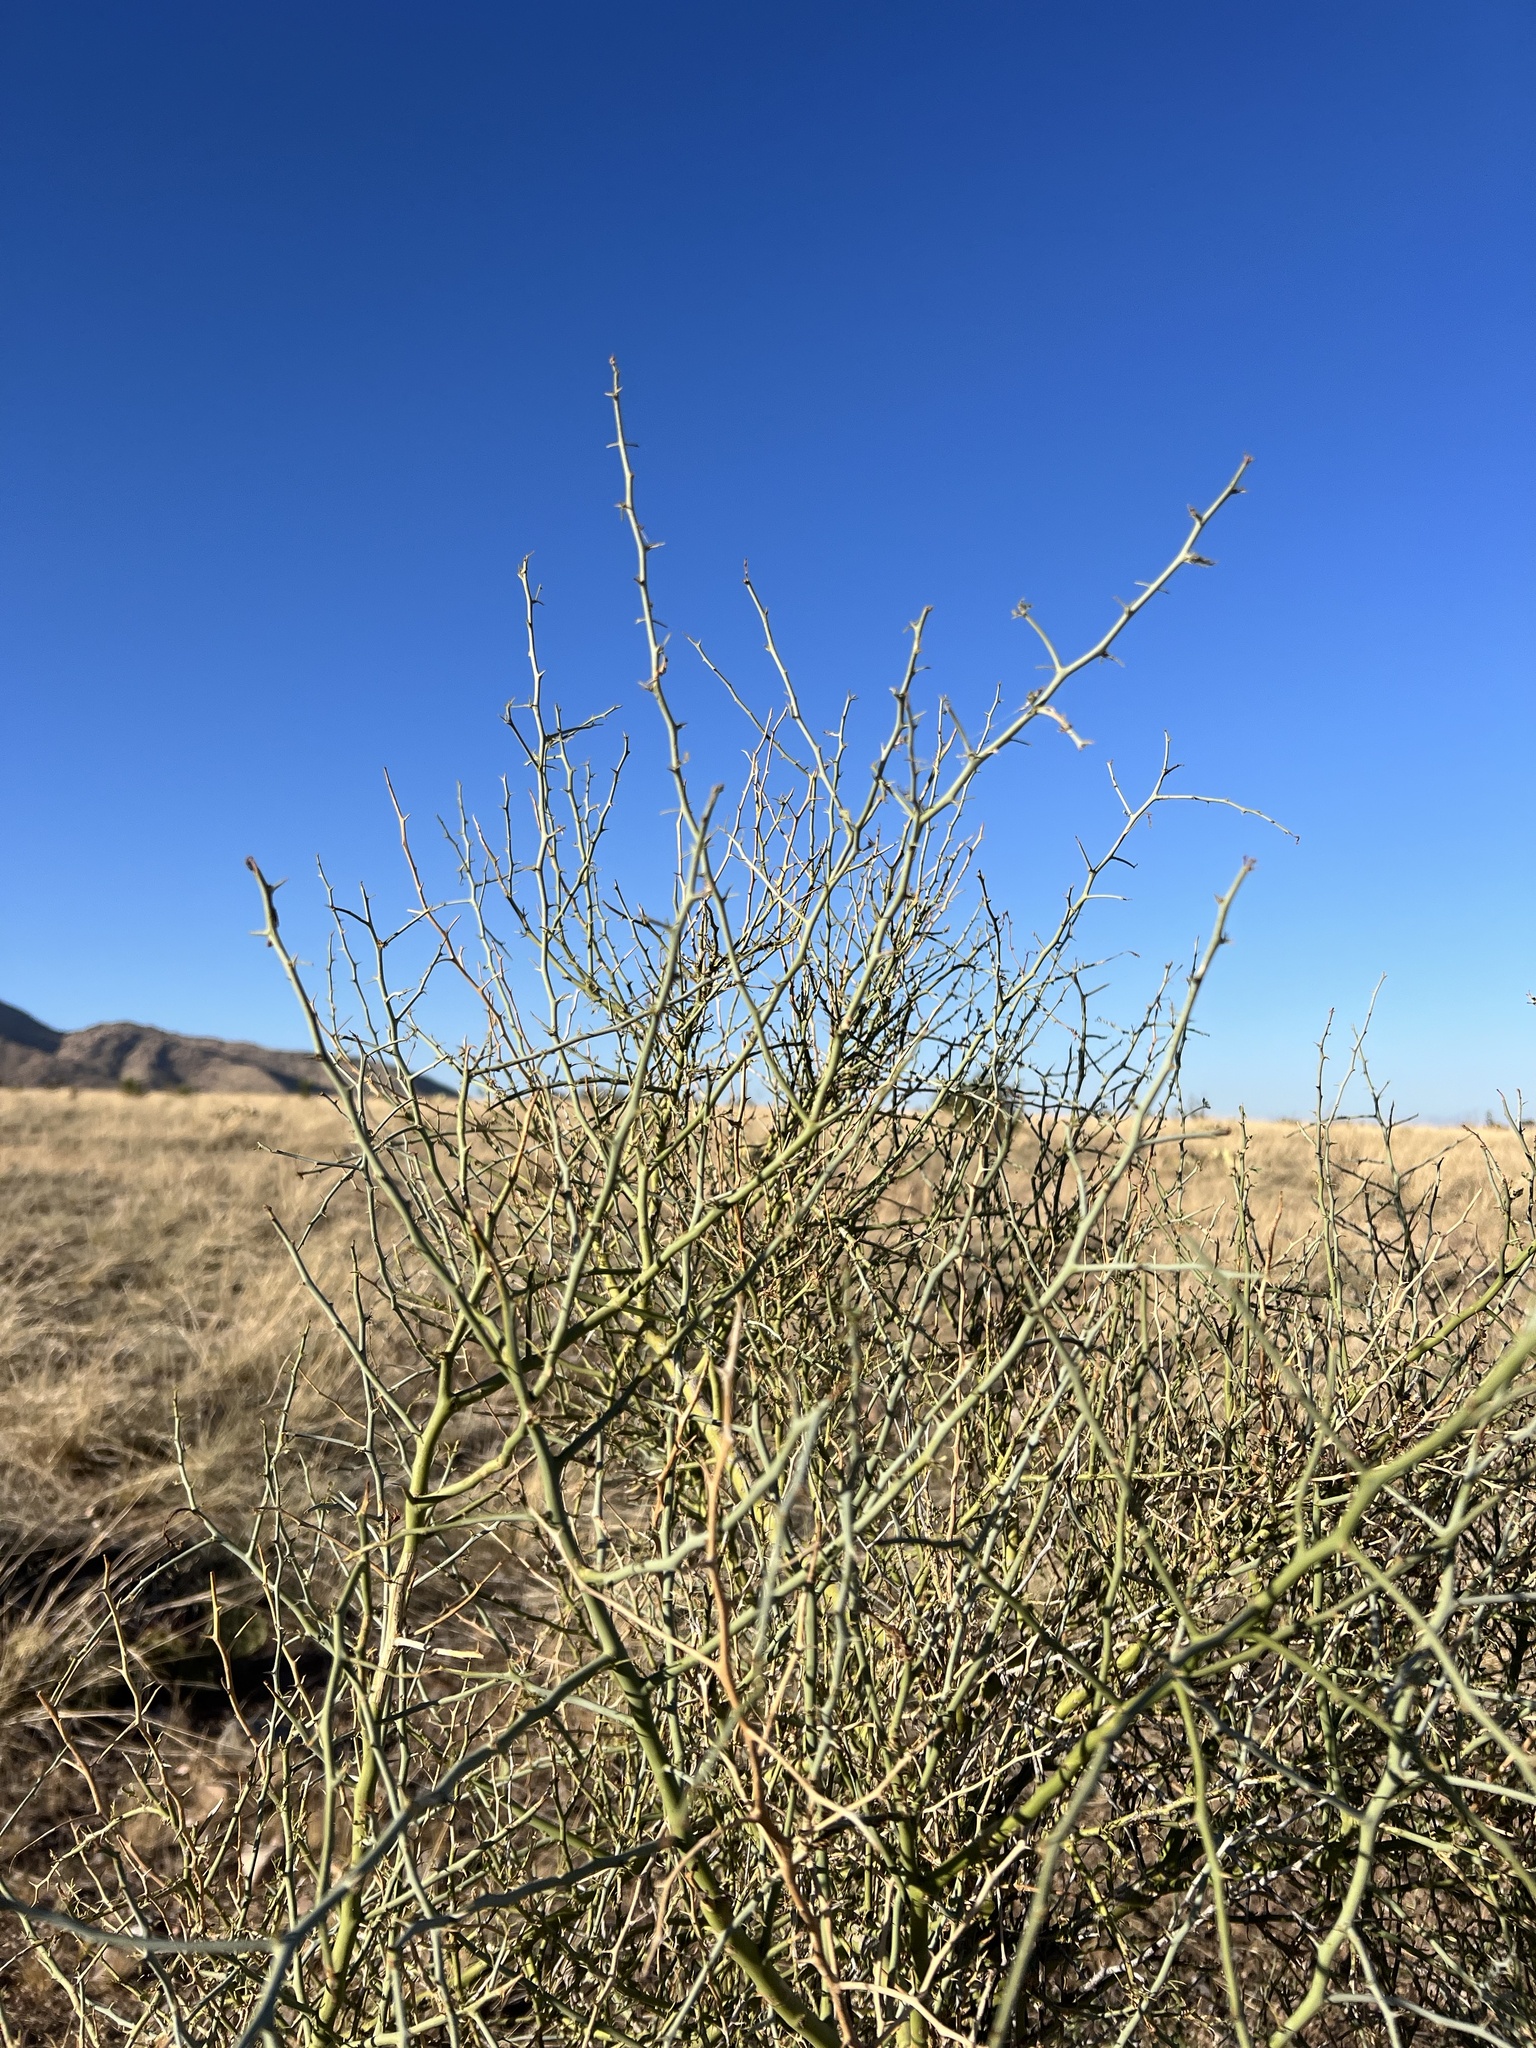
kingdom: Plantae
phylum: Tracheophyta
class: Magnoliopsida
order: Fabales
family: Fabaceae
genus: Parkinsonia
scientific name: Parkinsonia florida
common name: Blue paloverde
